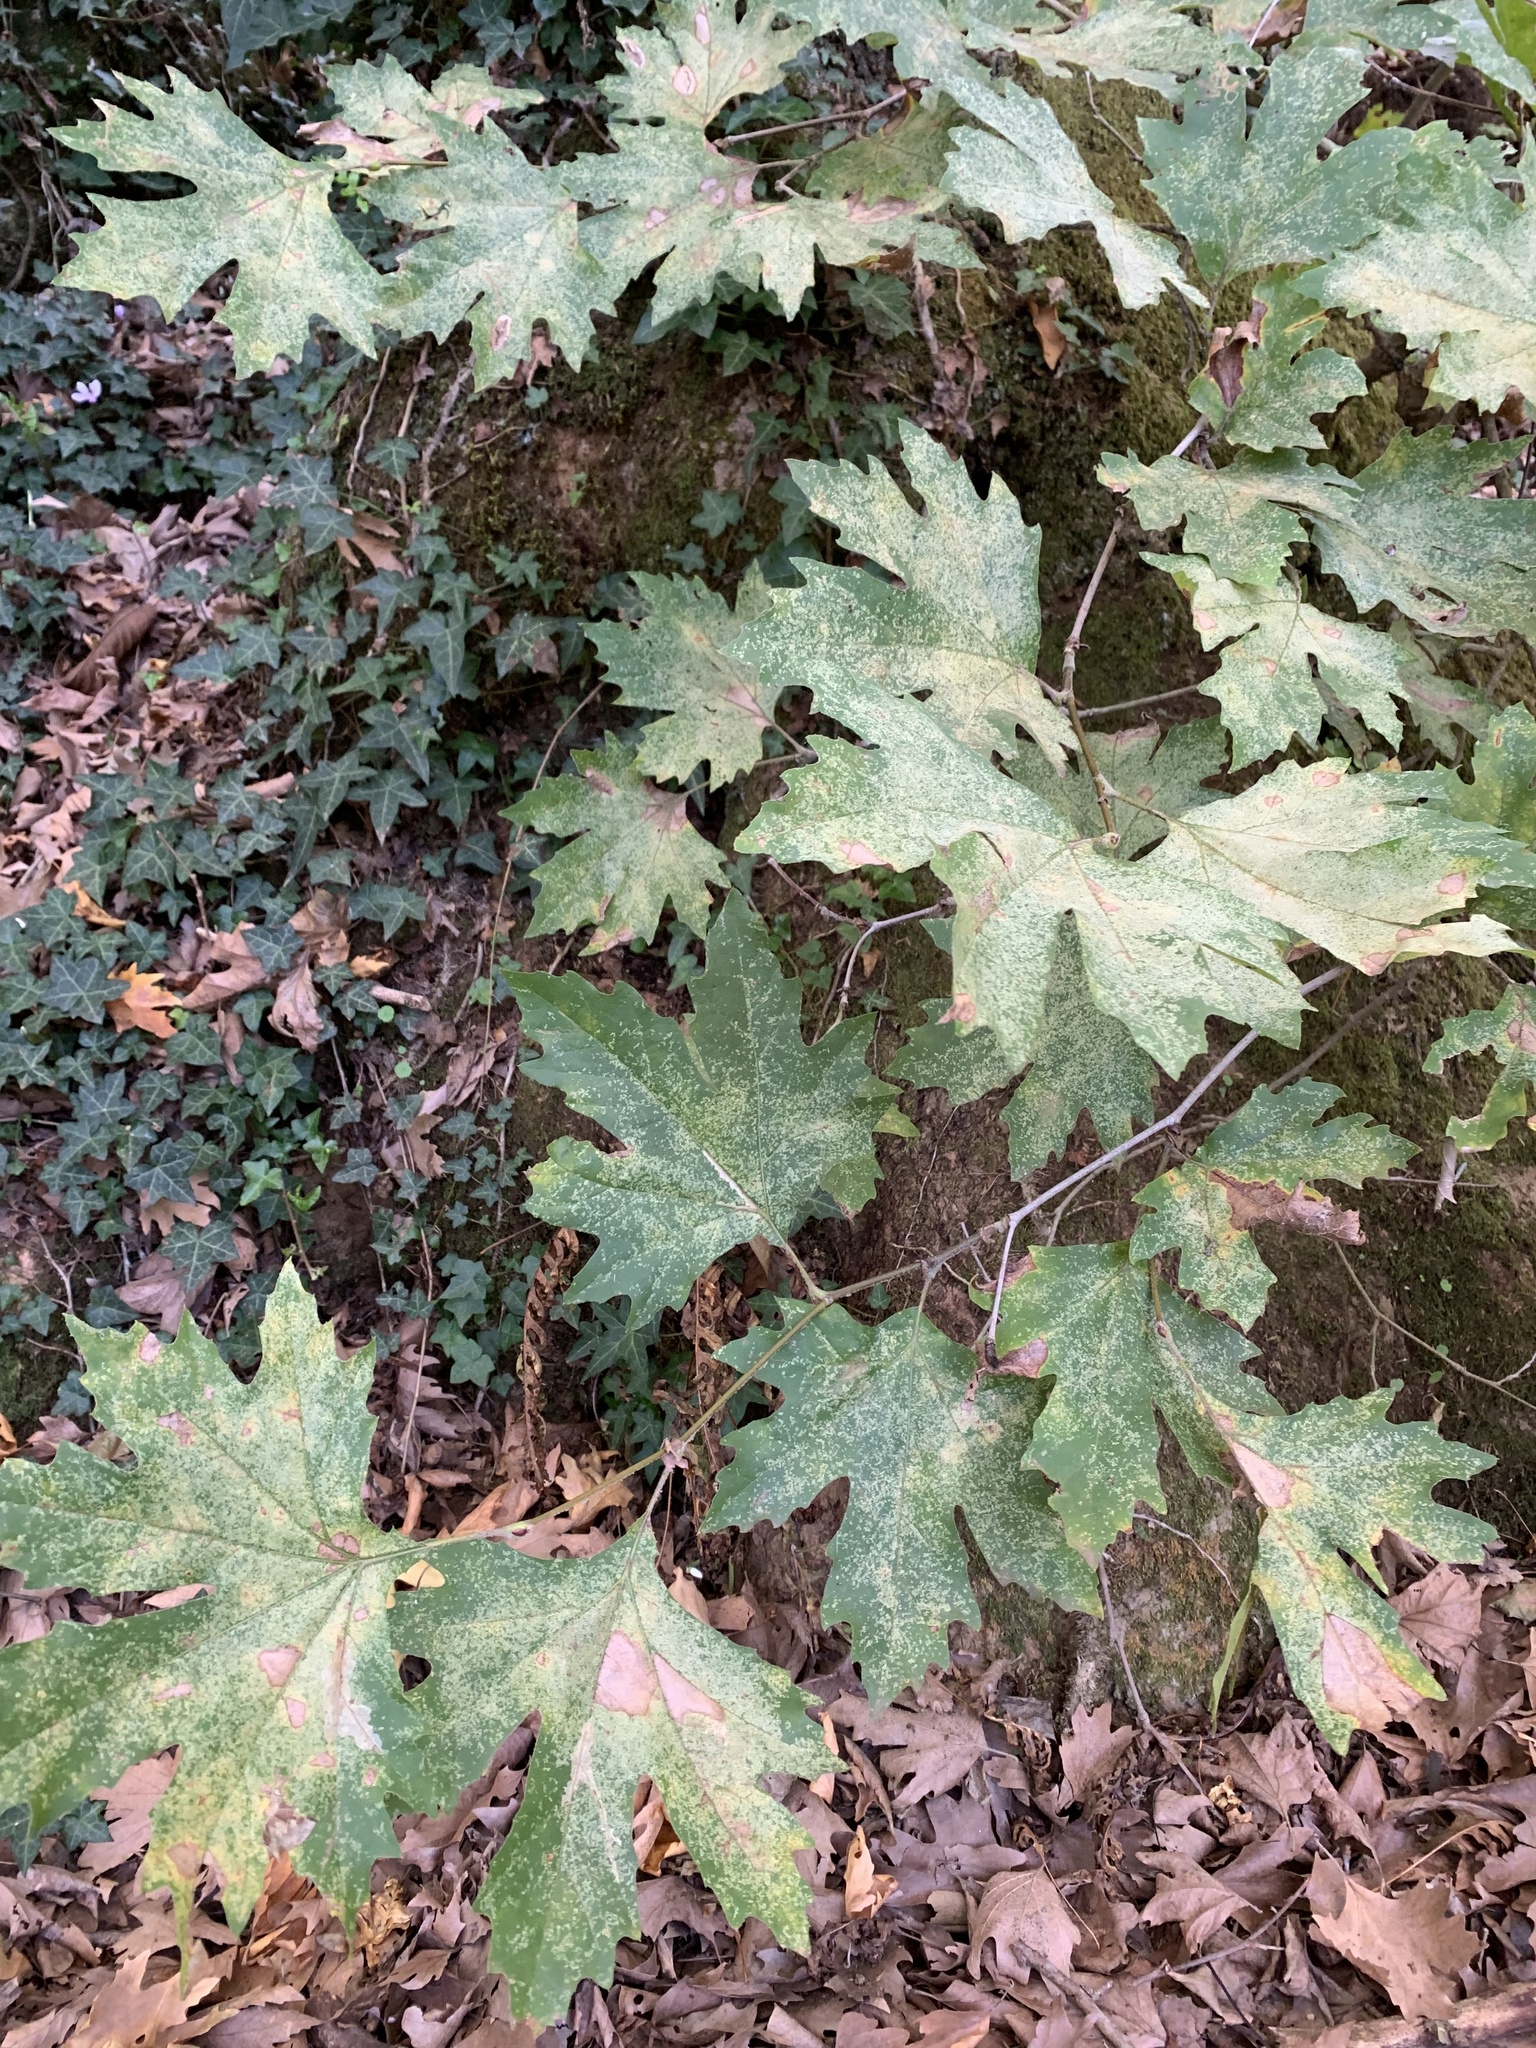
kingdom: Plantae
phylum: Tracheophyta
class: Magnoliopsida
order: Proteales
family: Platanaceae
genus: Platanus
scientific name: Platanus orientalis
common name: Oriental plane
